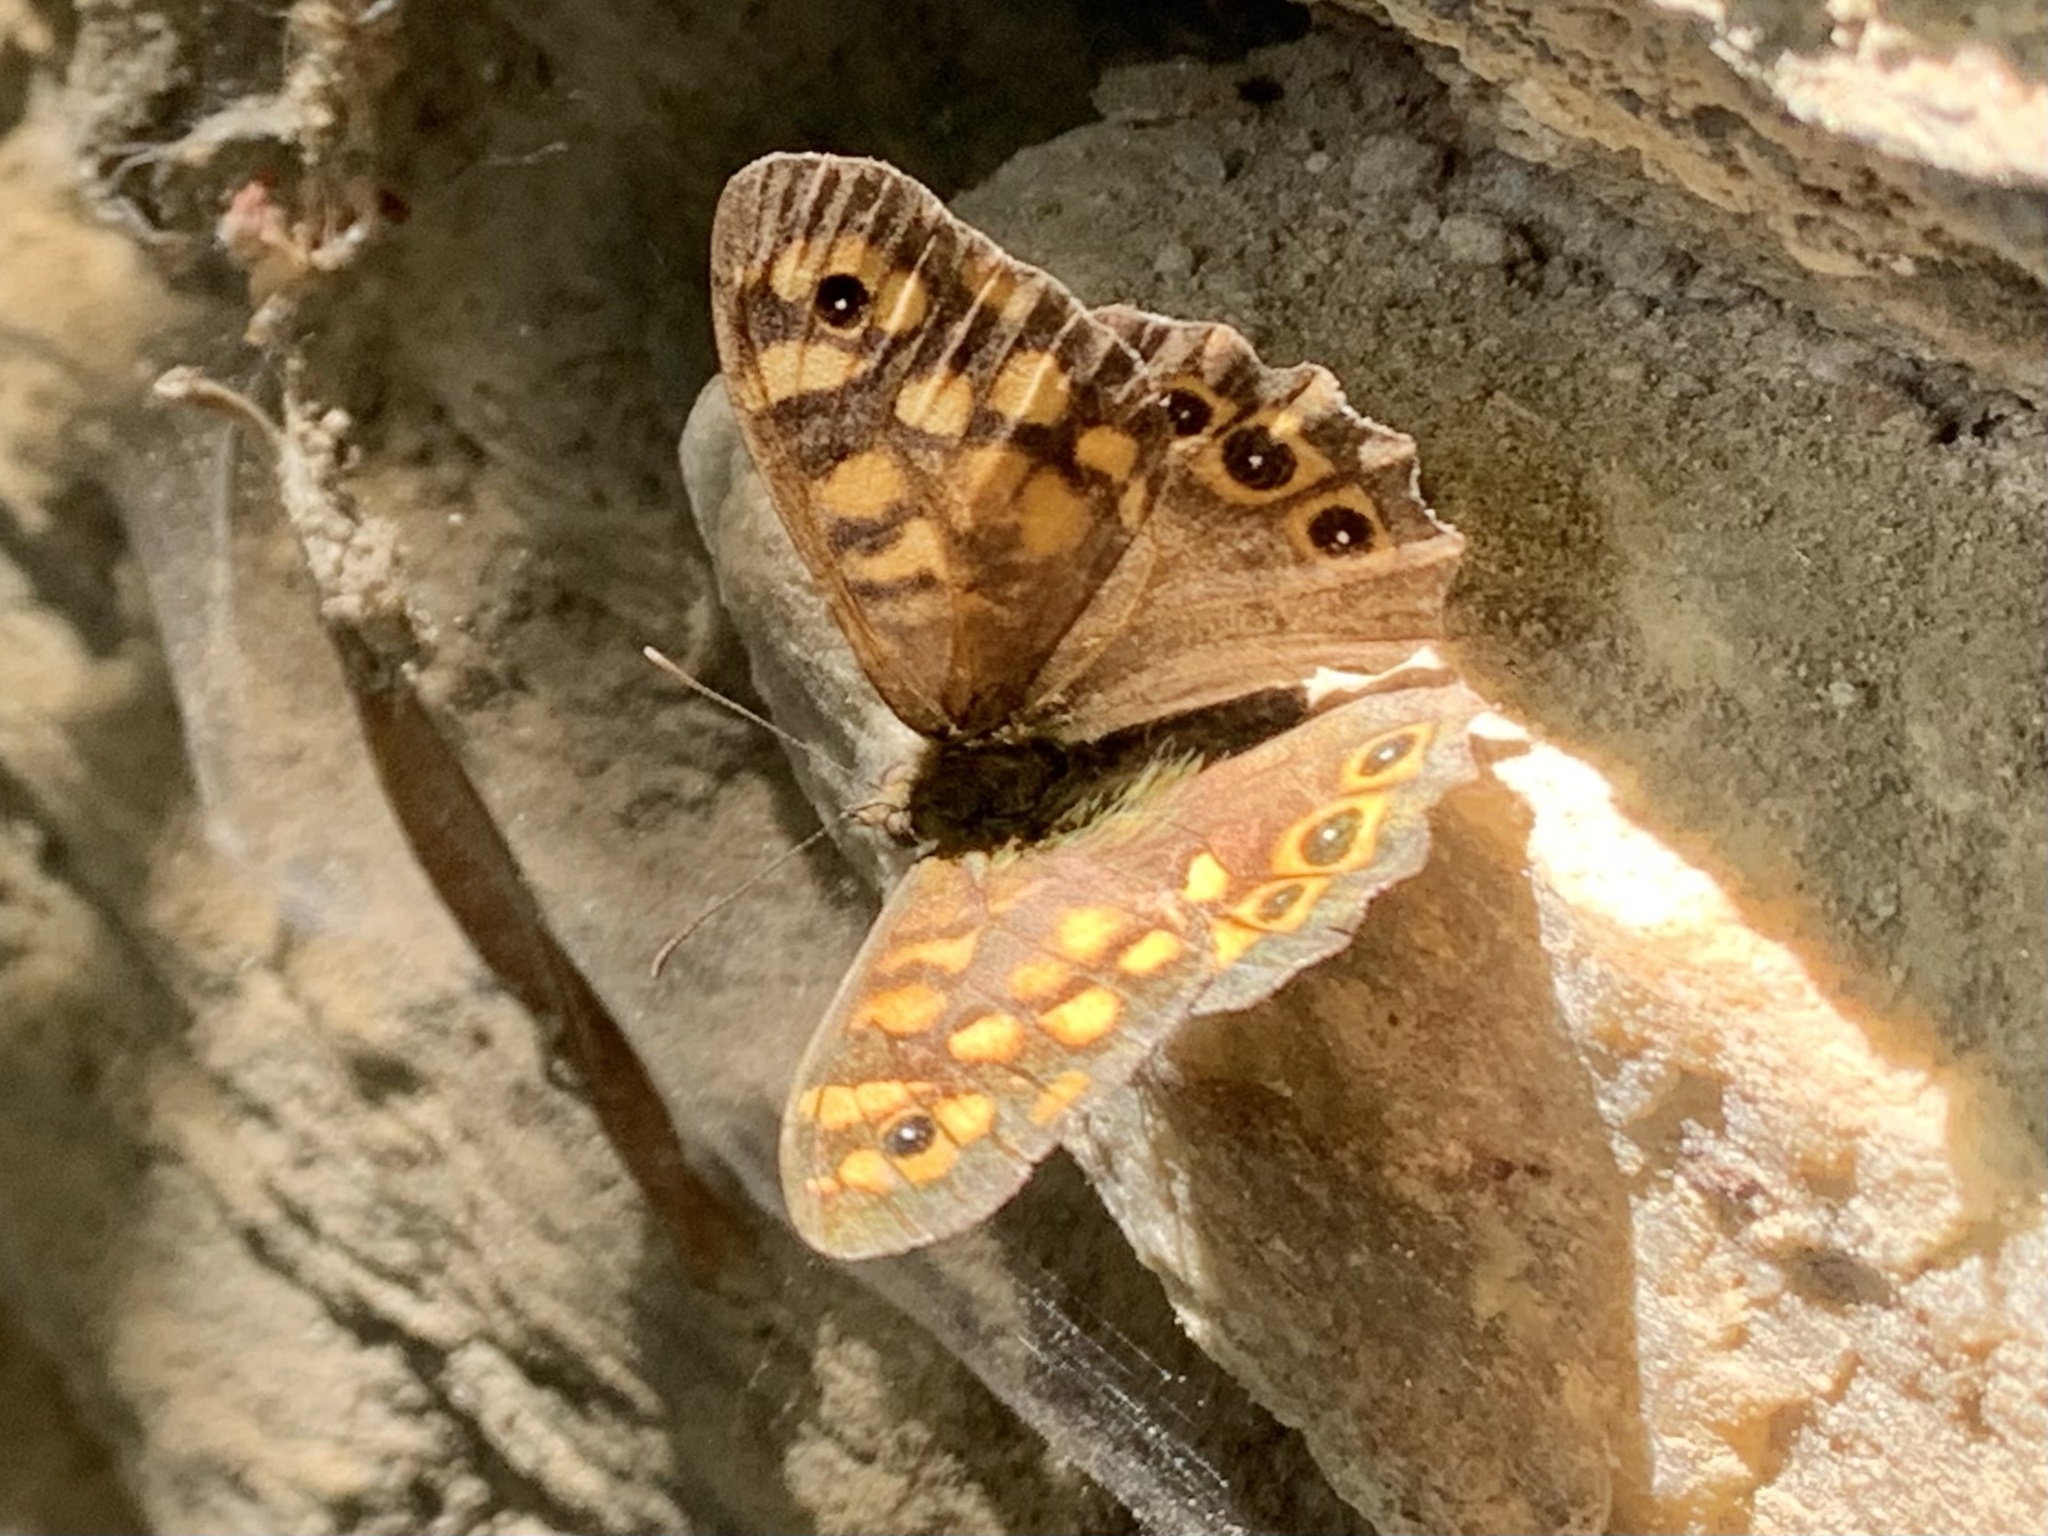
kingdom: Animalia
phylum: Arthropoda
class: Insecta
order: Lepidoptera
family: Nymphalidae
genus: Pararge
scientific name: Pararge aegeria
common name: Speckled wood
